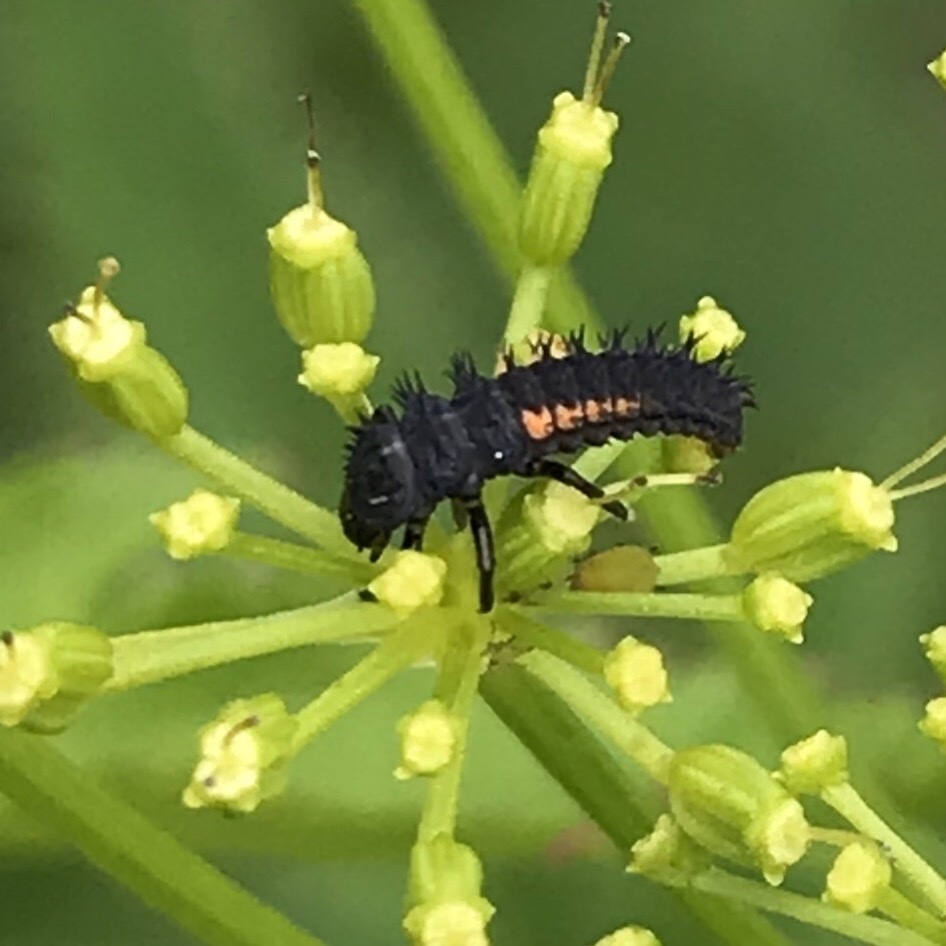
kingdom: Animalia
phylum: Arthropoda
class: Insecta
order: Coleoptera
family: Coccinellidae
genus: Harmonia
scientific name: Harmonia axyridis
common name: Harlequin ladybird
